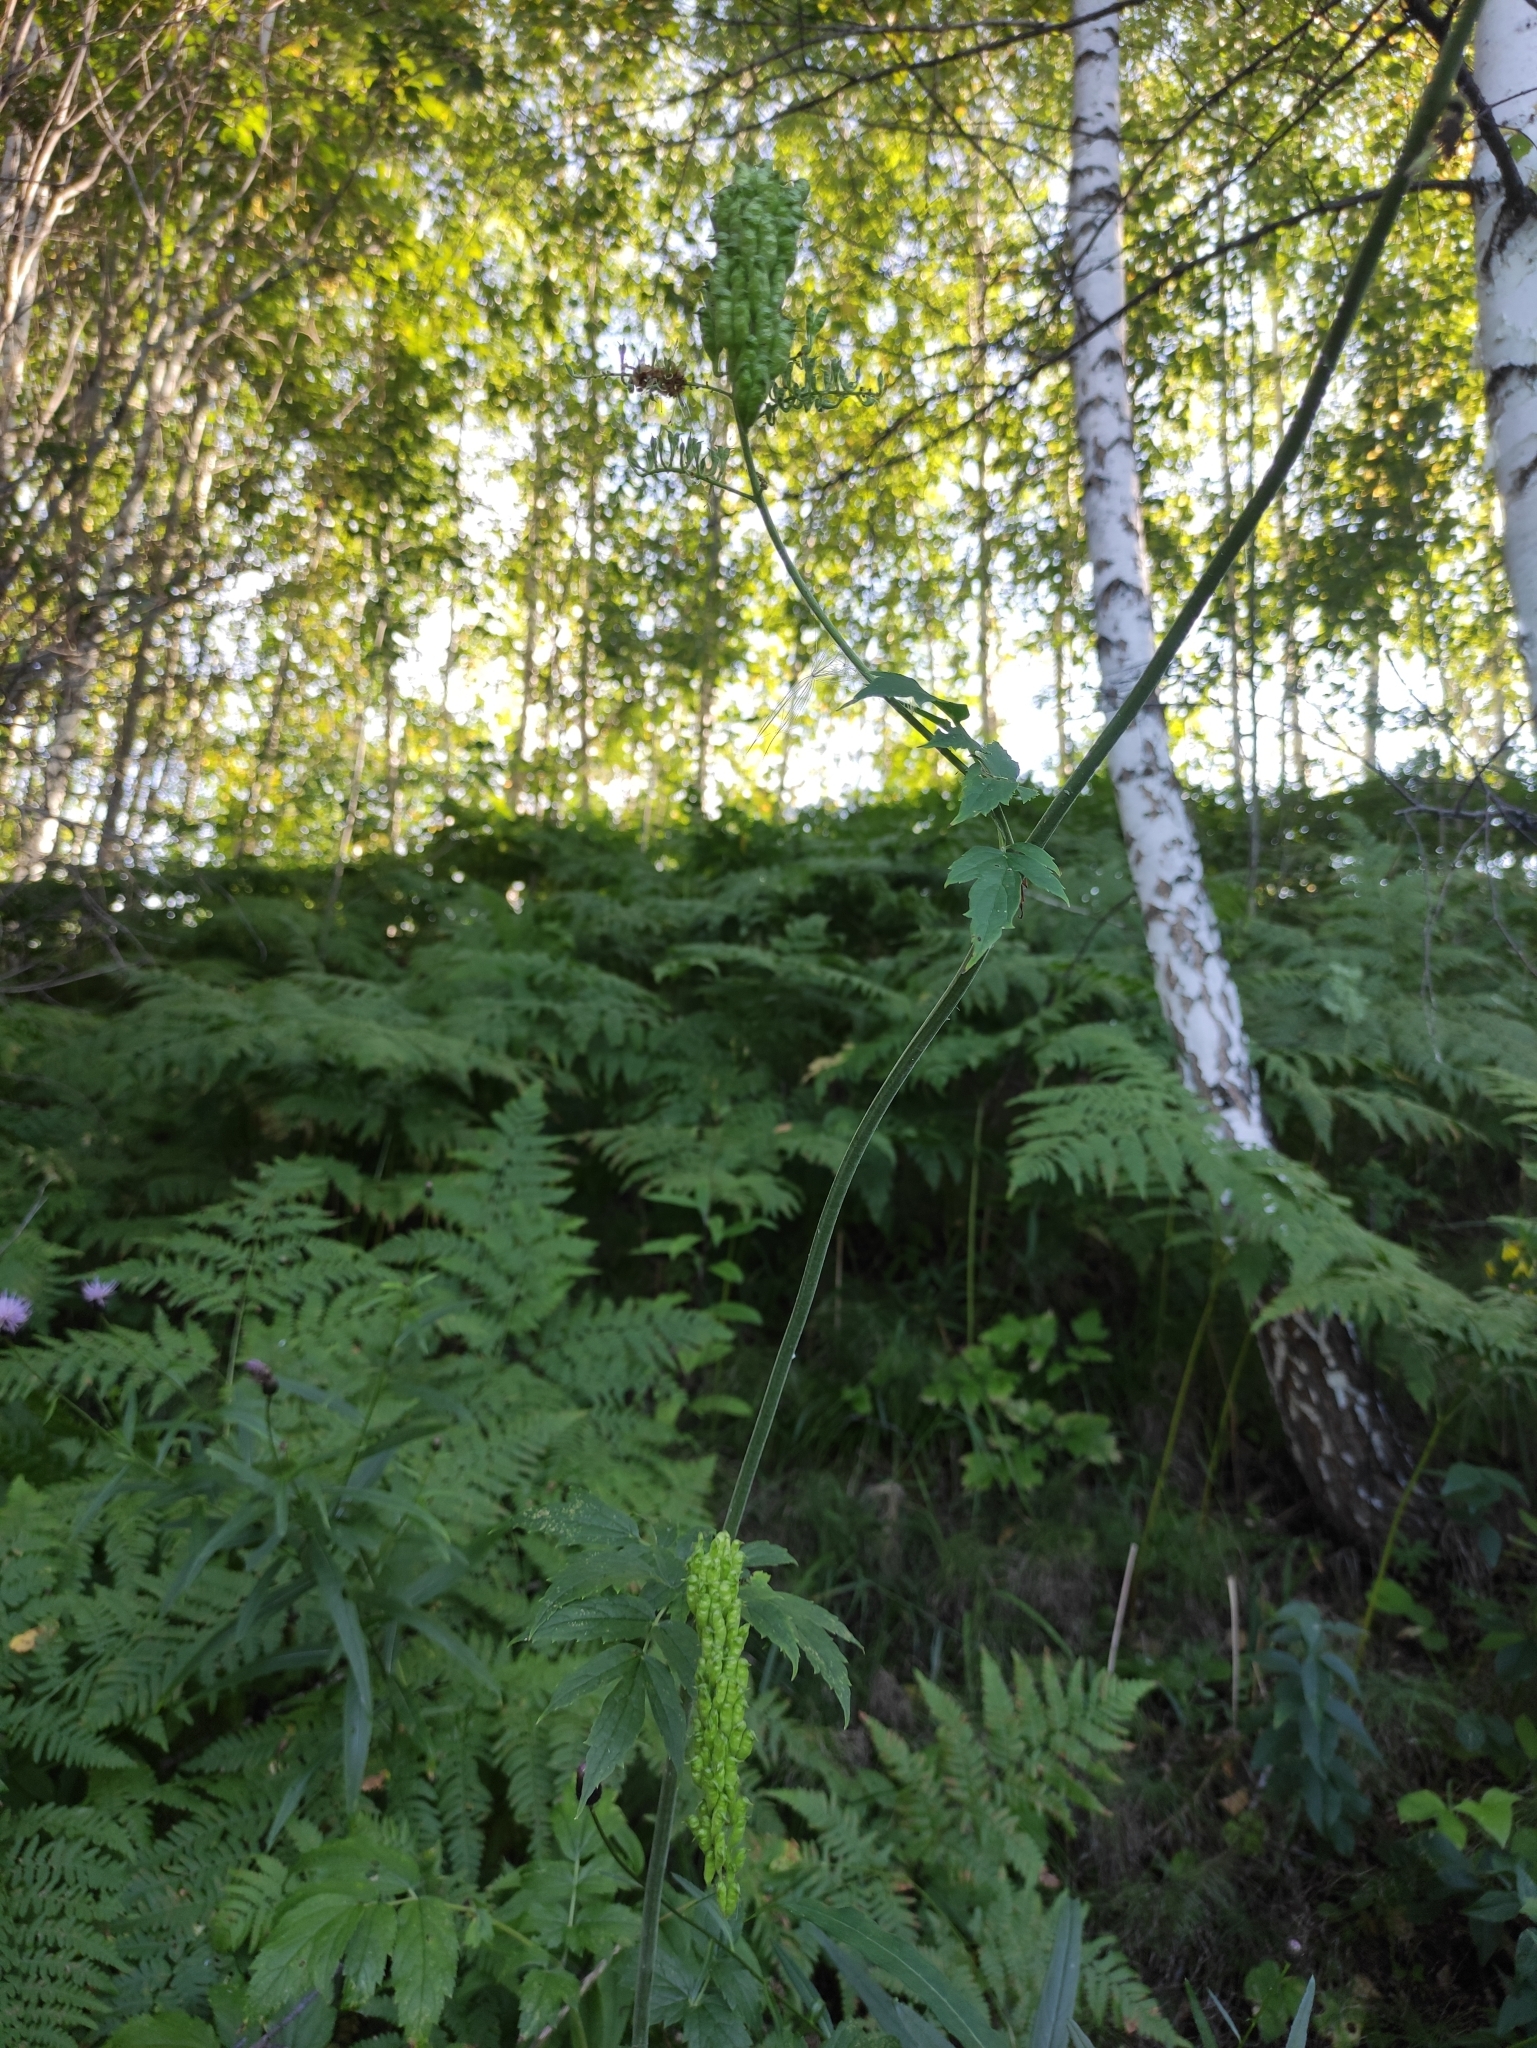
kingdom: Plantae
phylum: Tracheophyta
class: Magnoliopsida
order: Ranunculales
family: Ranunculaceae
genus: Actaea
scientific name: Actaea cimicifuga
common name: Chinese cimicifuga
